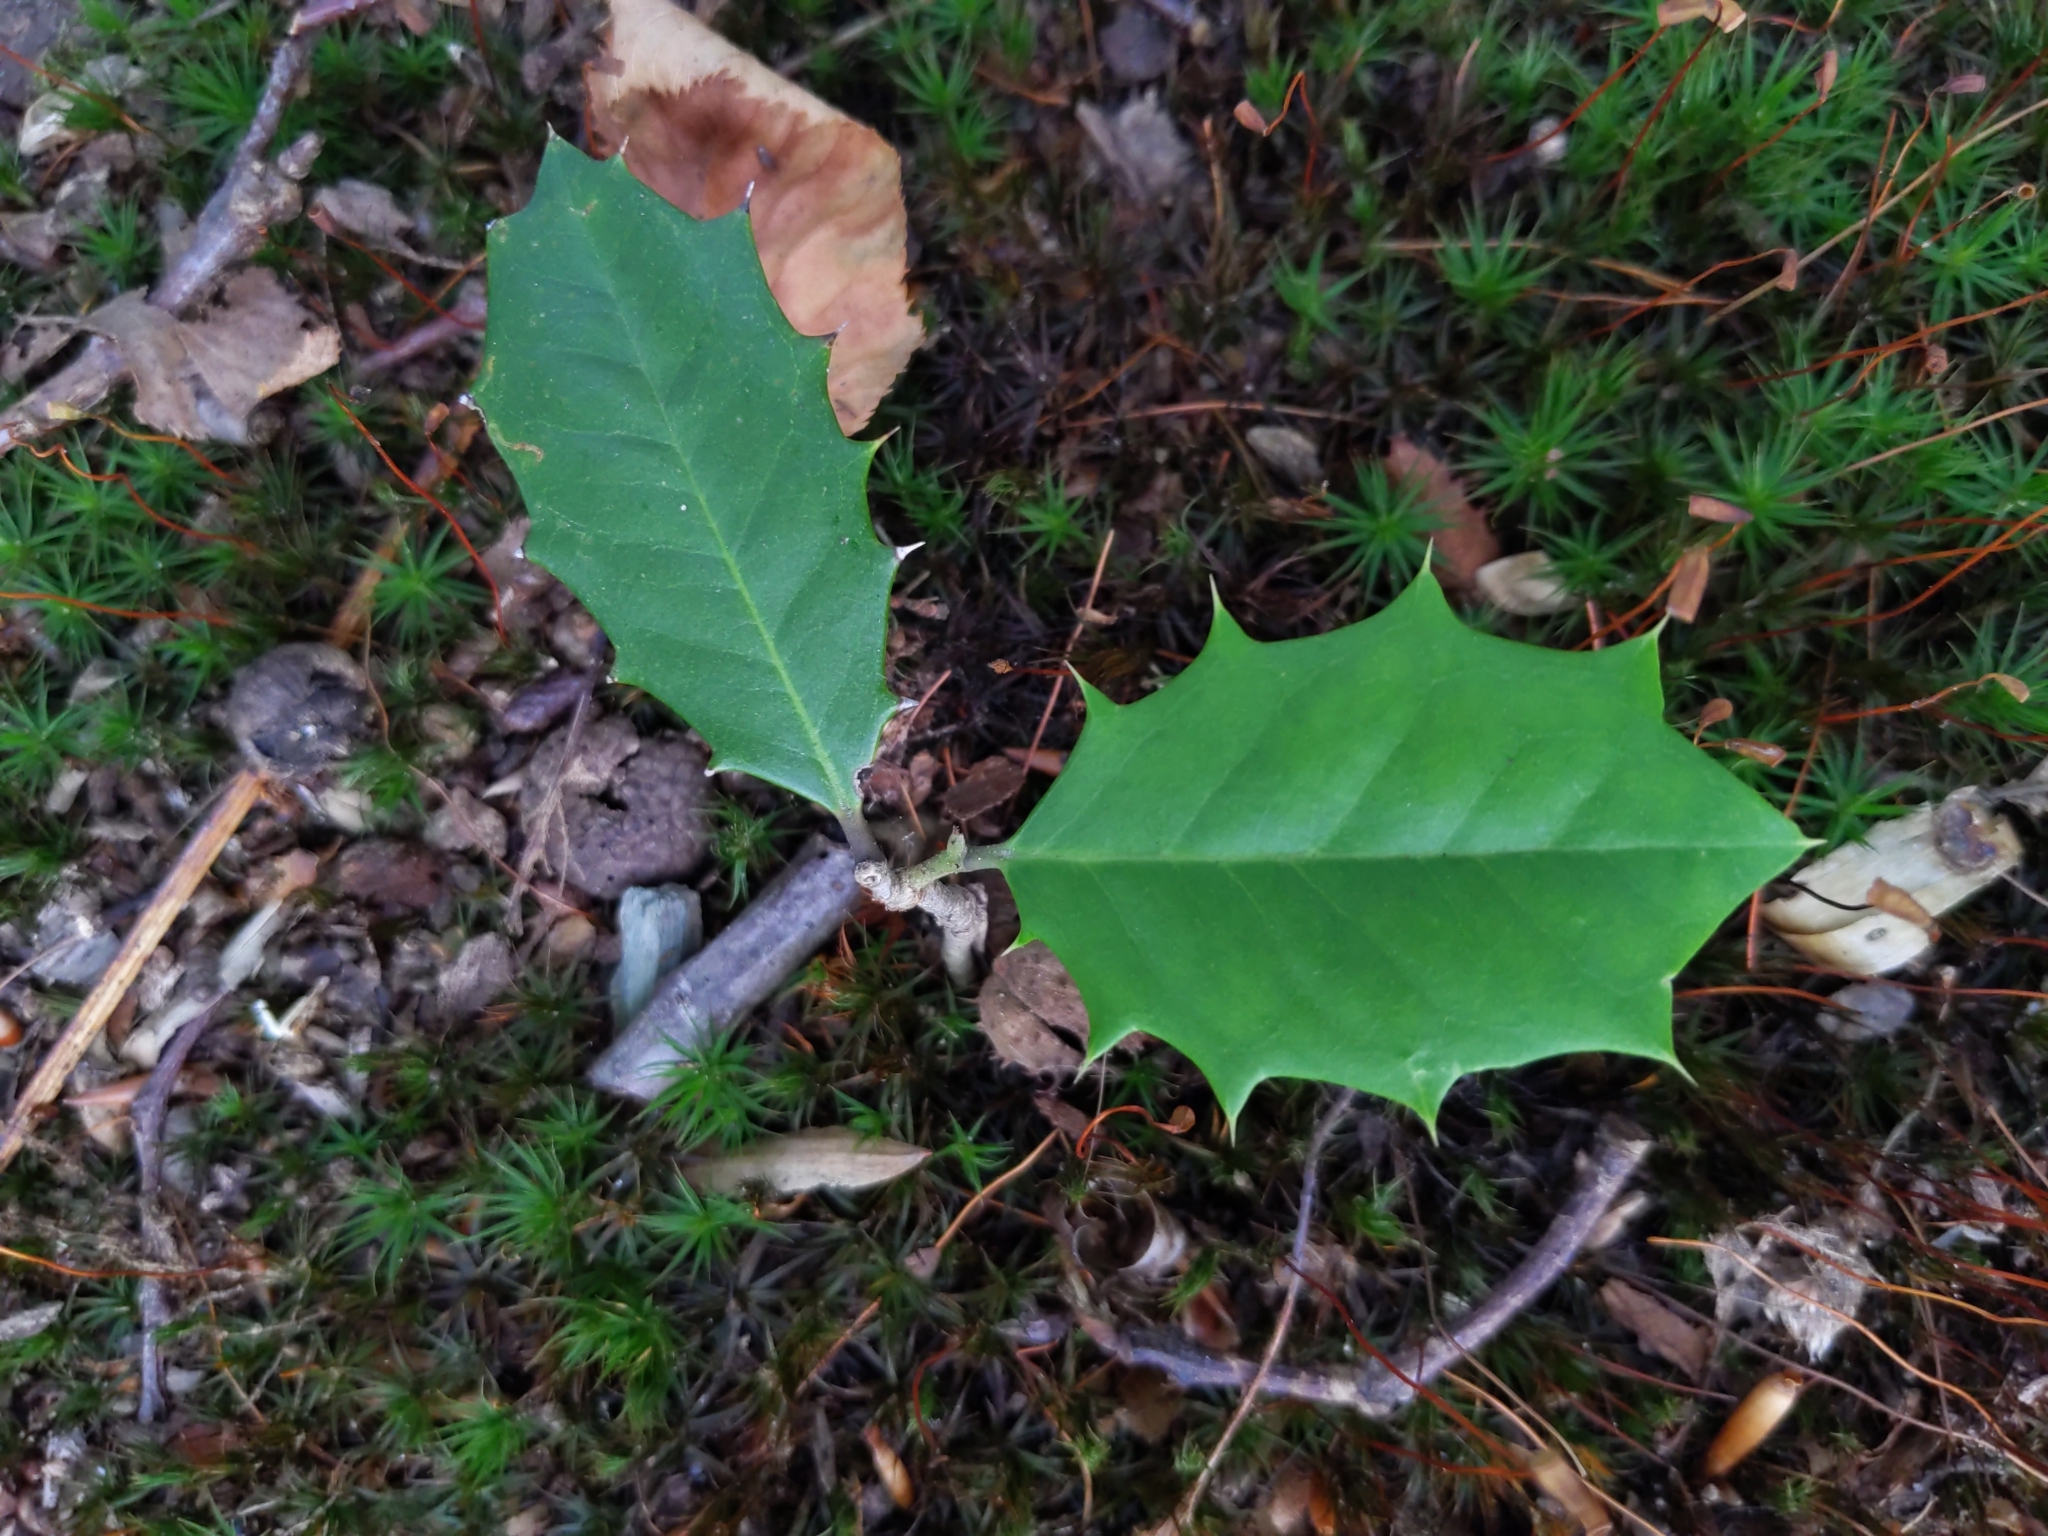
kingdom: Plantae
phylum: Tracheophyta
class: Magnoliopsida
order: Aquifoliales
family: Aquifoliaceae
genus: Ilex
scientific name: Ilex opaca
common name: American holly
